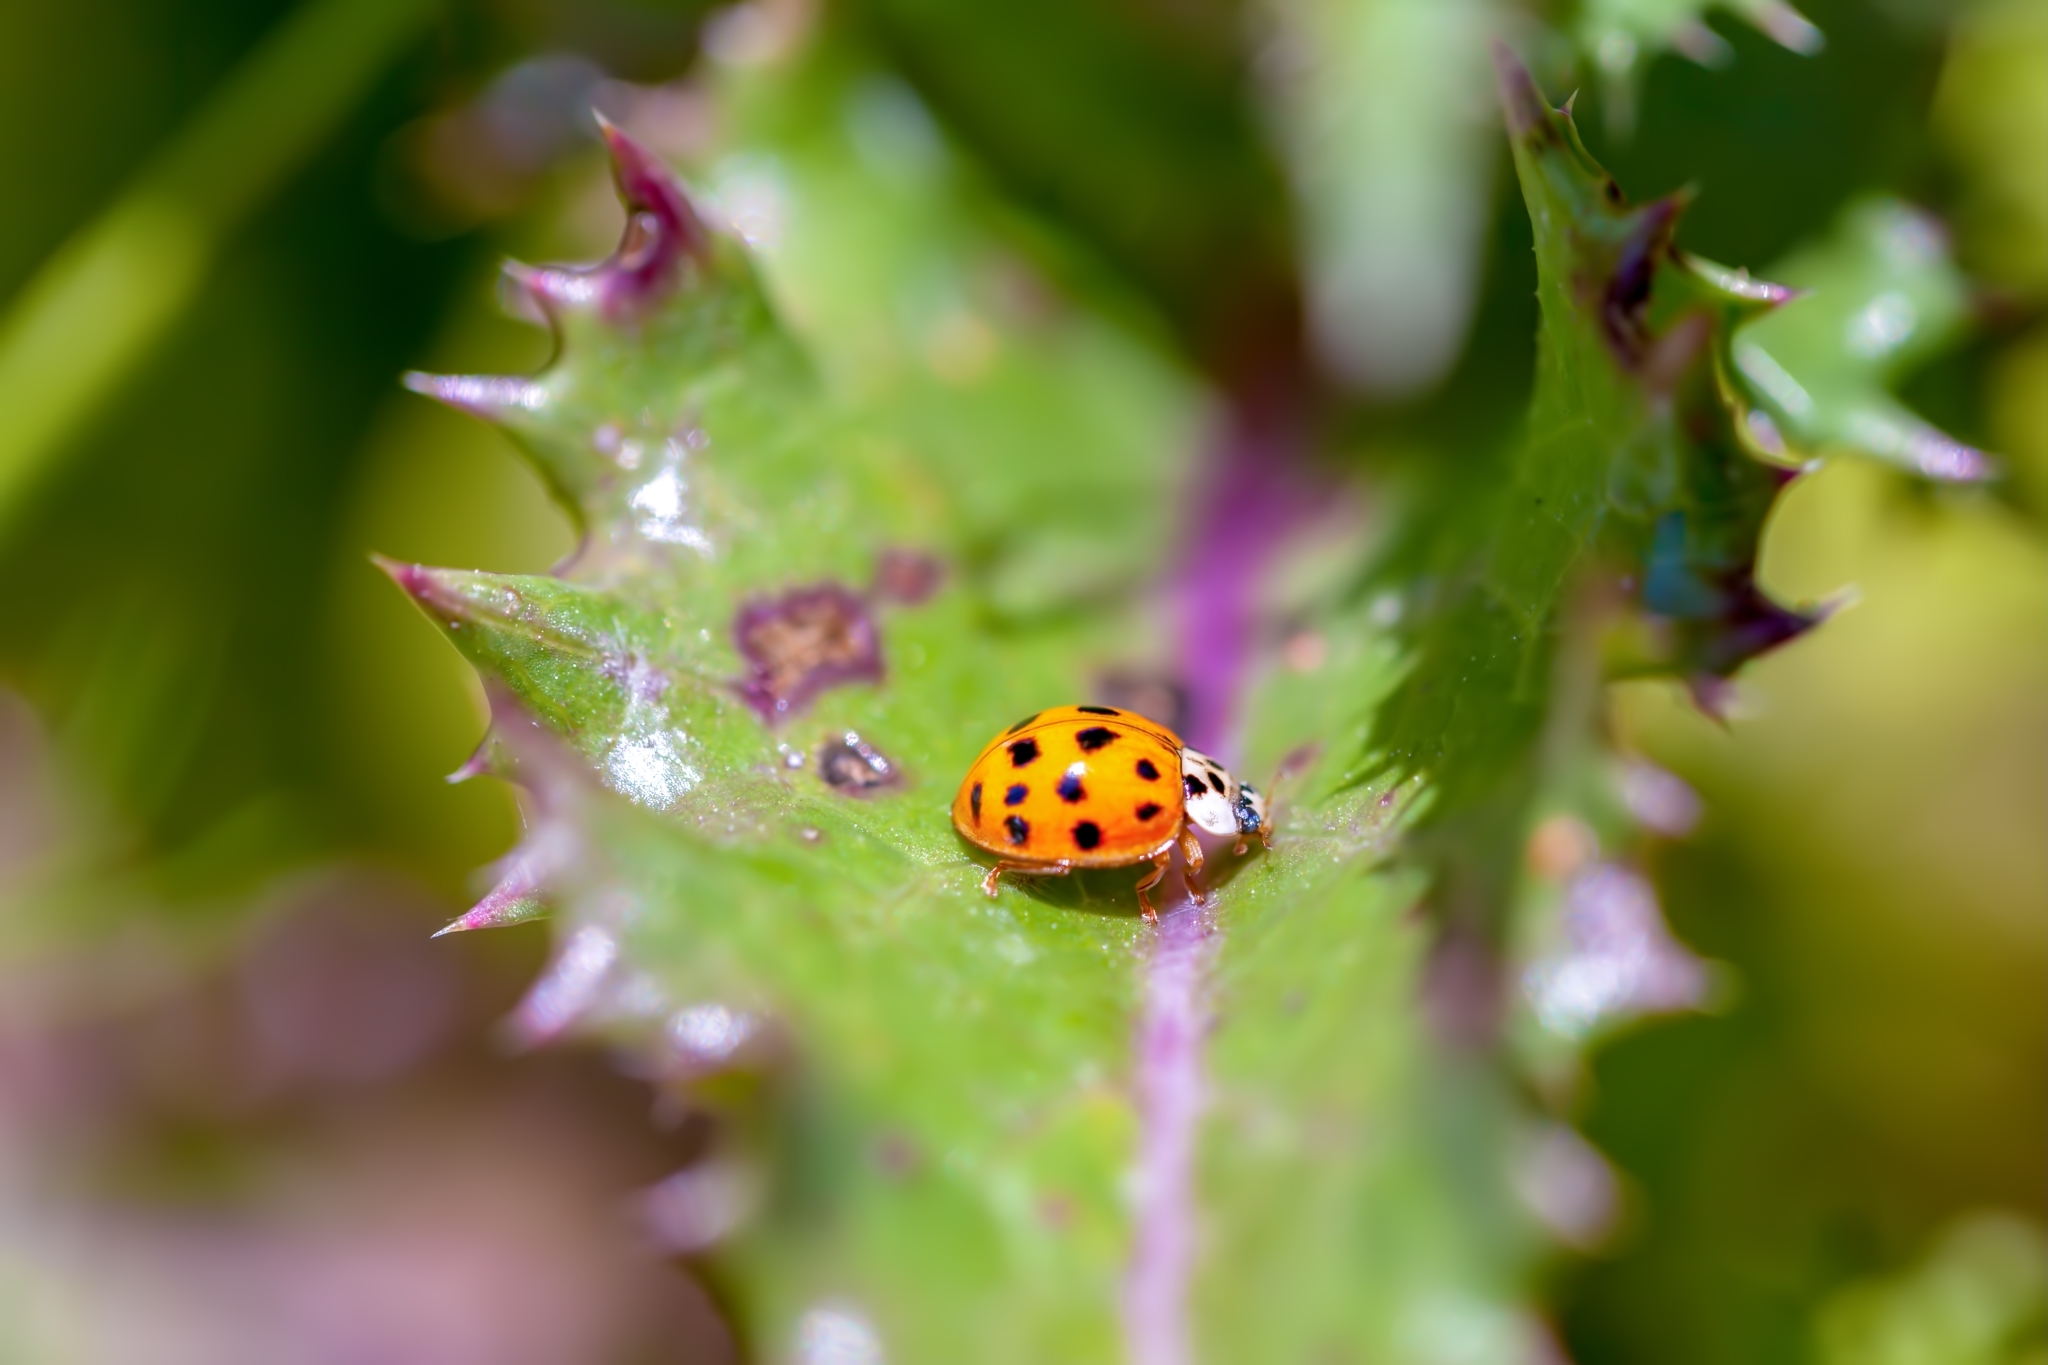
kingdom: Animalia
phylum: Arthropoda
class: Insecta
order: Coleoptera
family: Coccinellidae
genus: Harmonia
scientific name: Harmonia axyridis
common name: Harlequin ladybird
